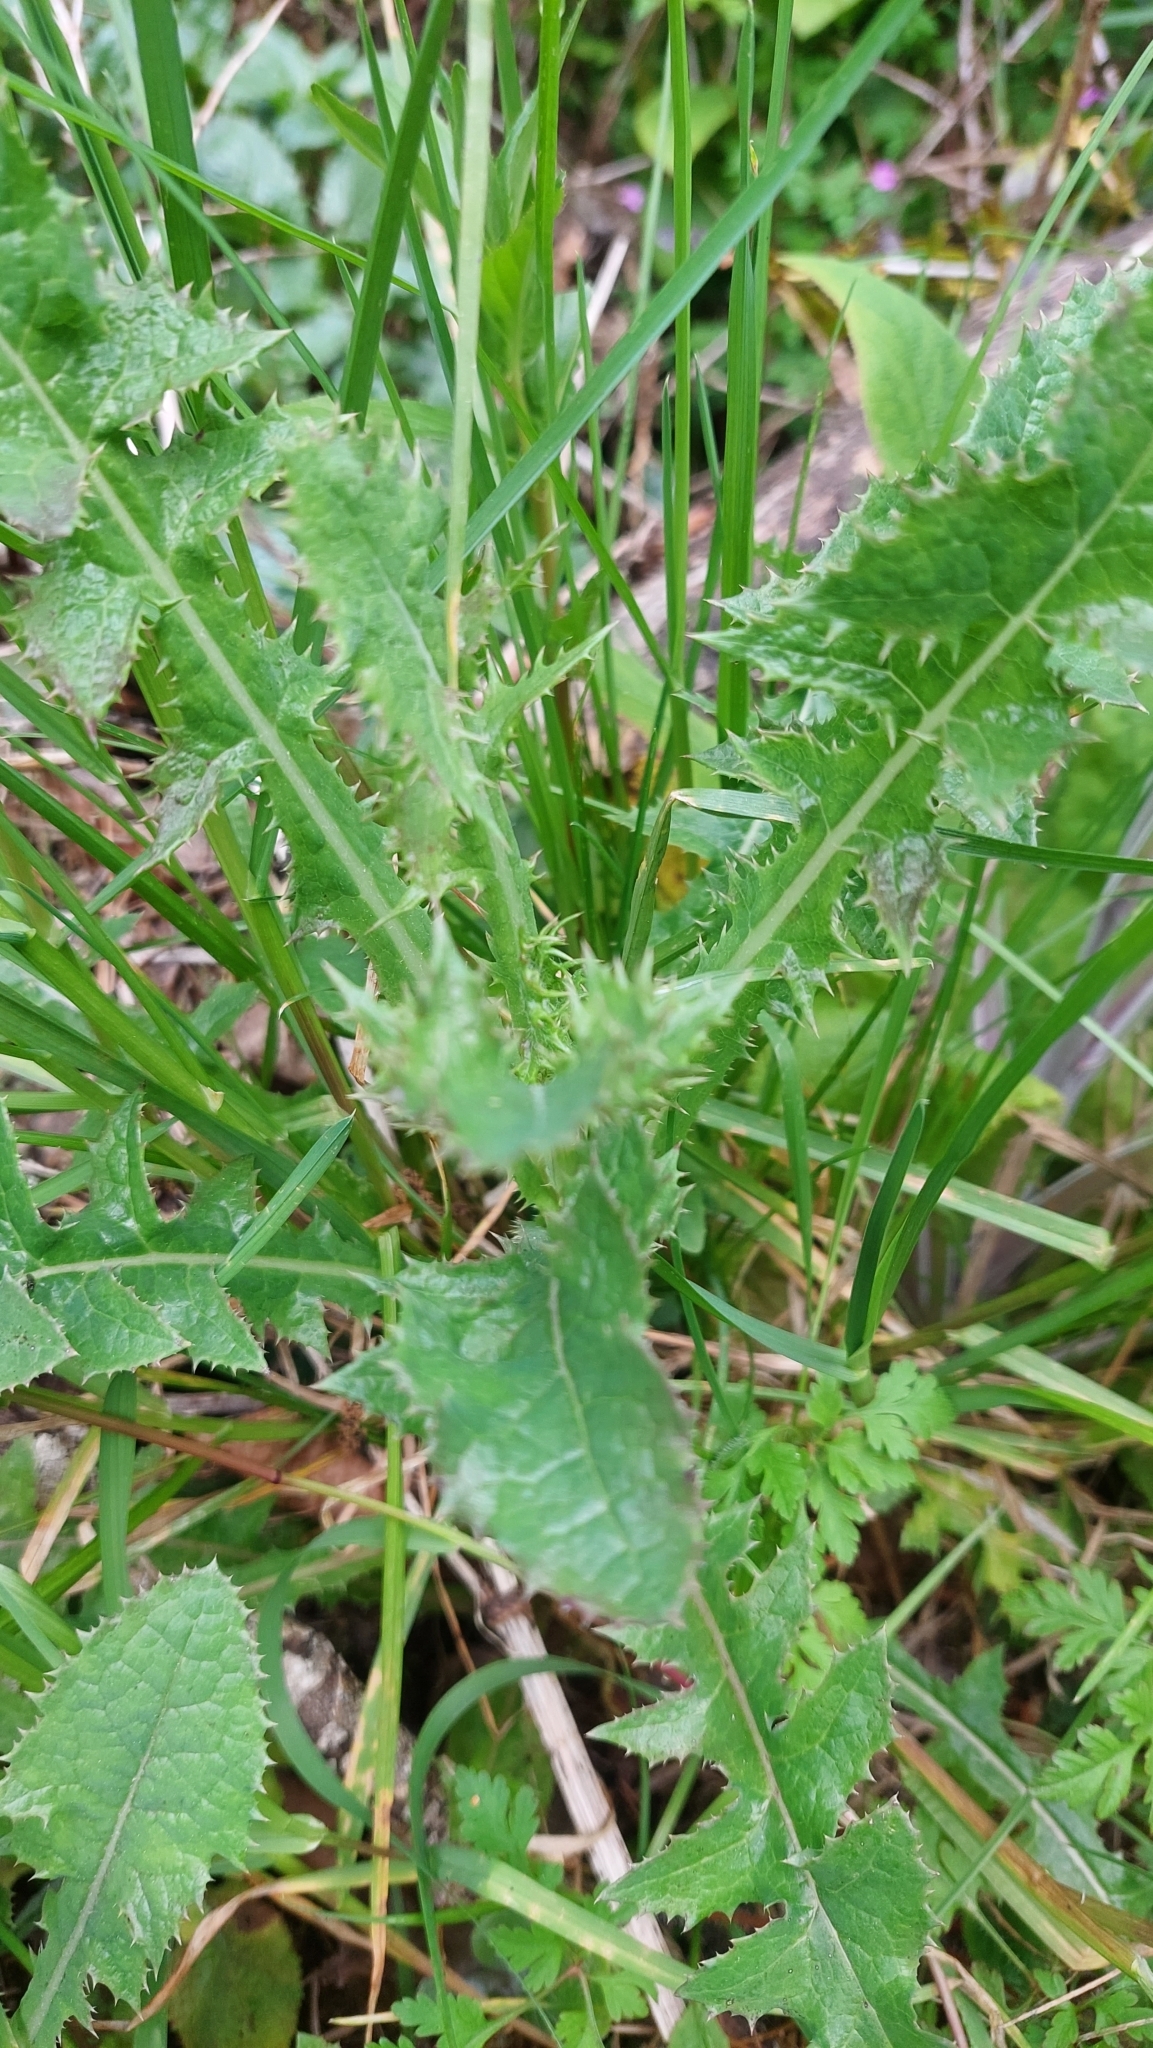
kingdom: Plantae
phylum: Tracheophyta
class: Magnoliopsida
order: Asterales
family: Asteraceae
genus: Sonchus
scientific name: Sonchus asper
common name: Prickly sow-thistle
